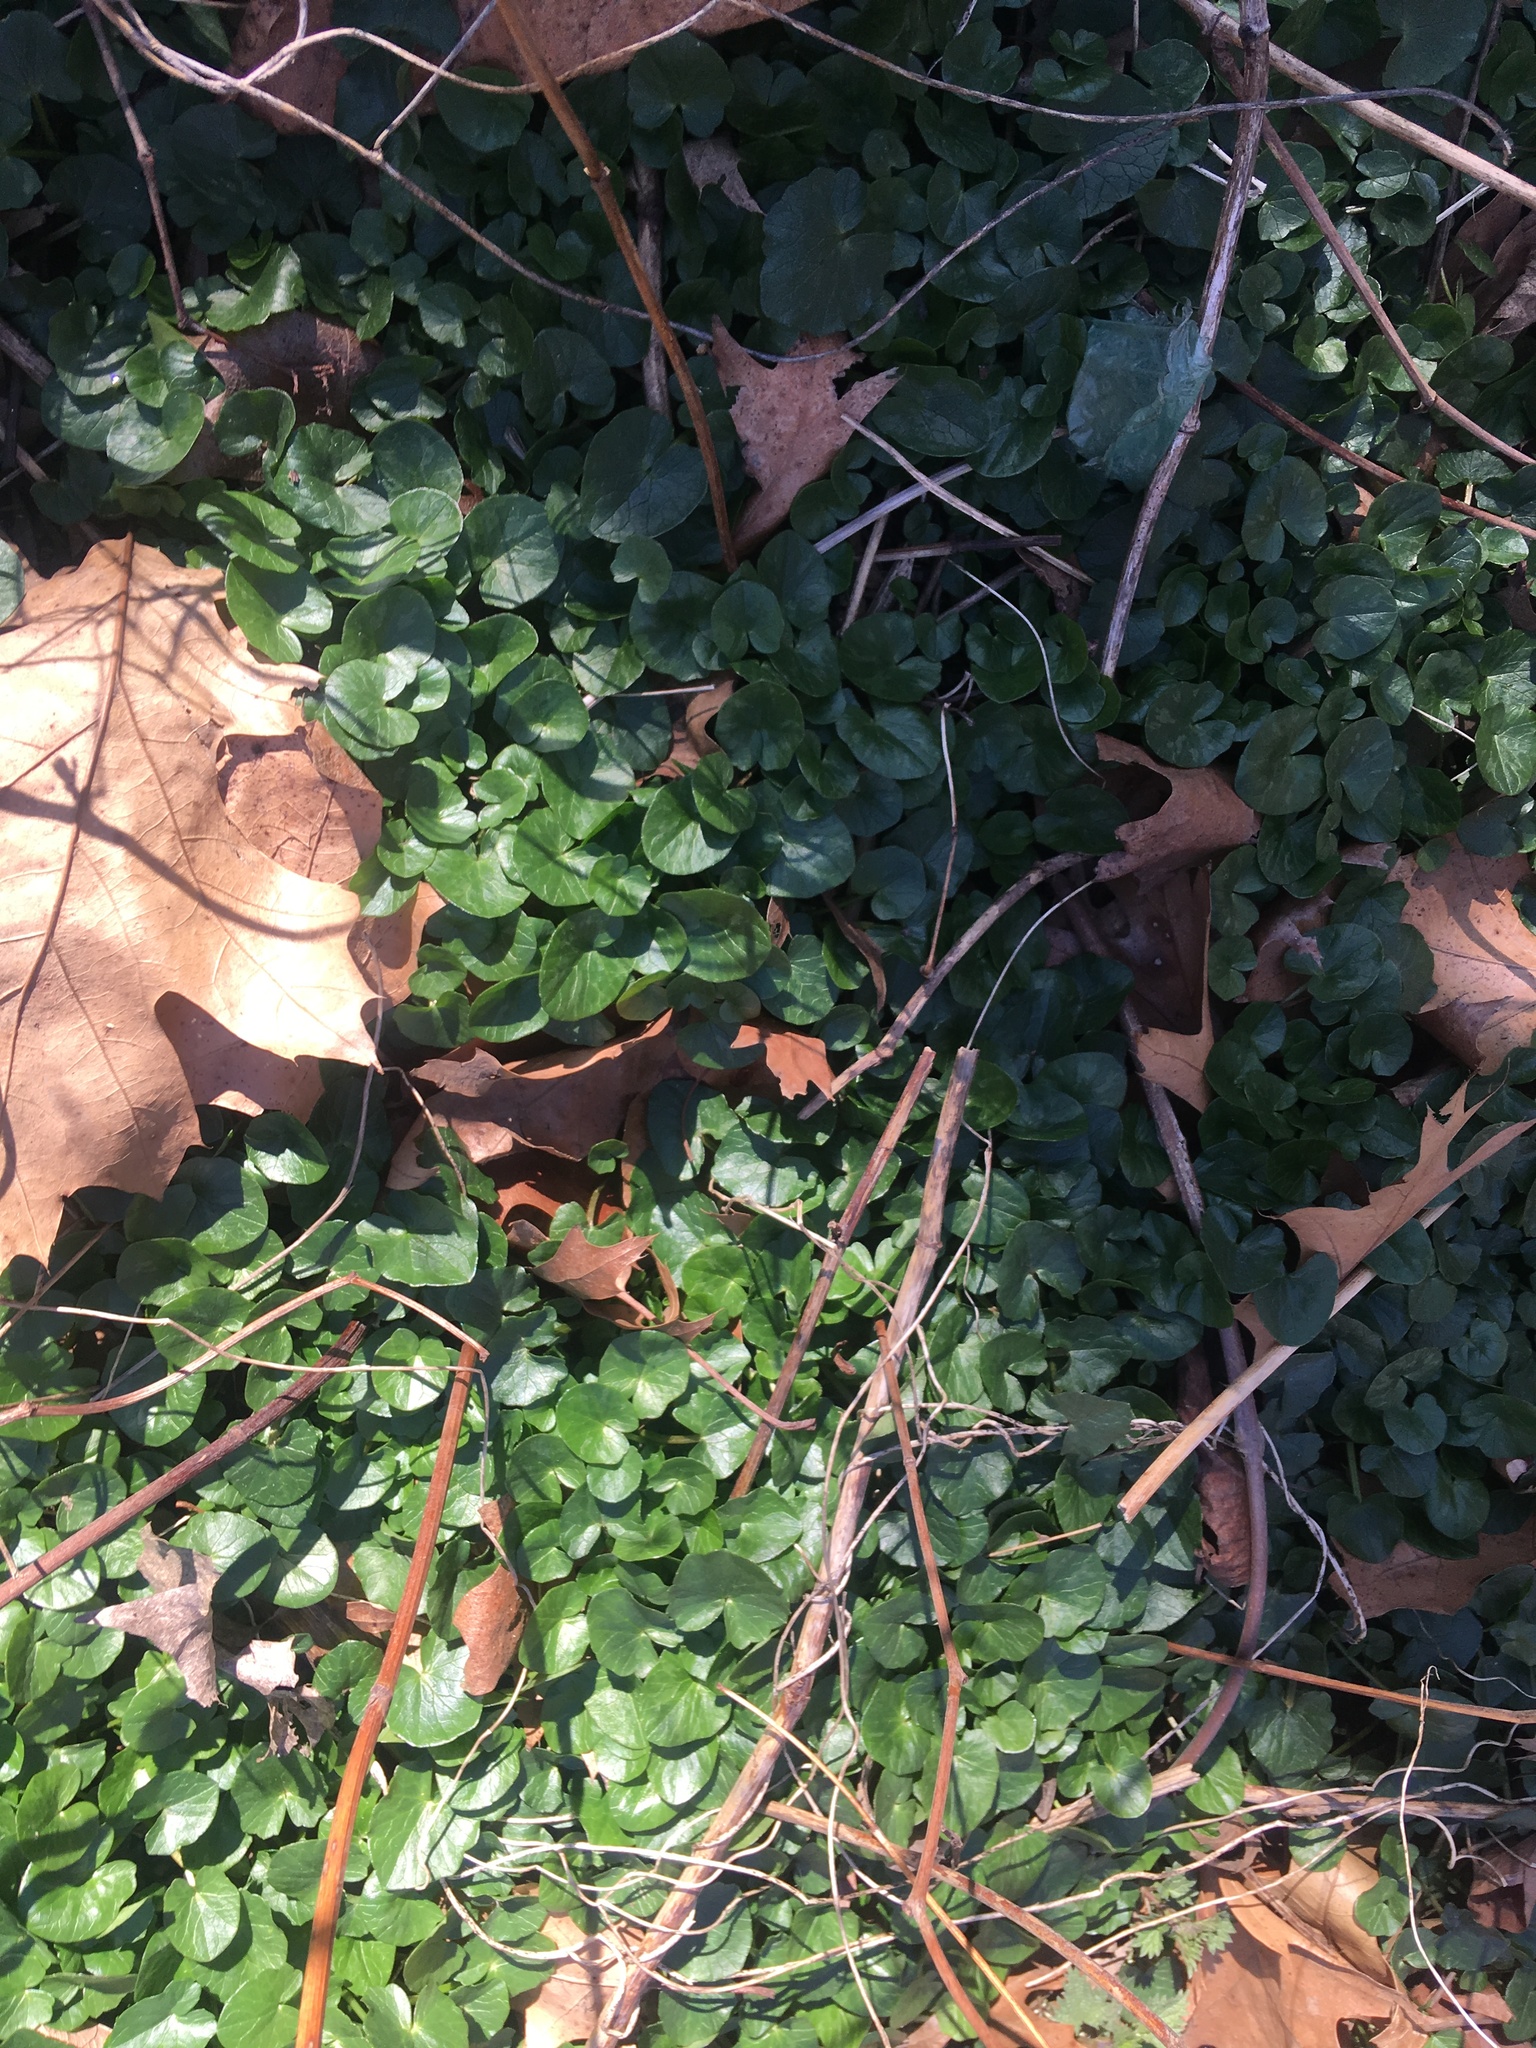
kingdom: Plantae
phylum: Tracheophyta
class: Magnoliopsida
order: Ranunculales
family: Ranunculaceae
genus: Ficaria
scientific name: Ficaria verna
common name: Lesser celandine
